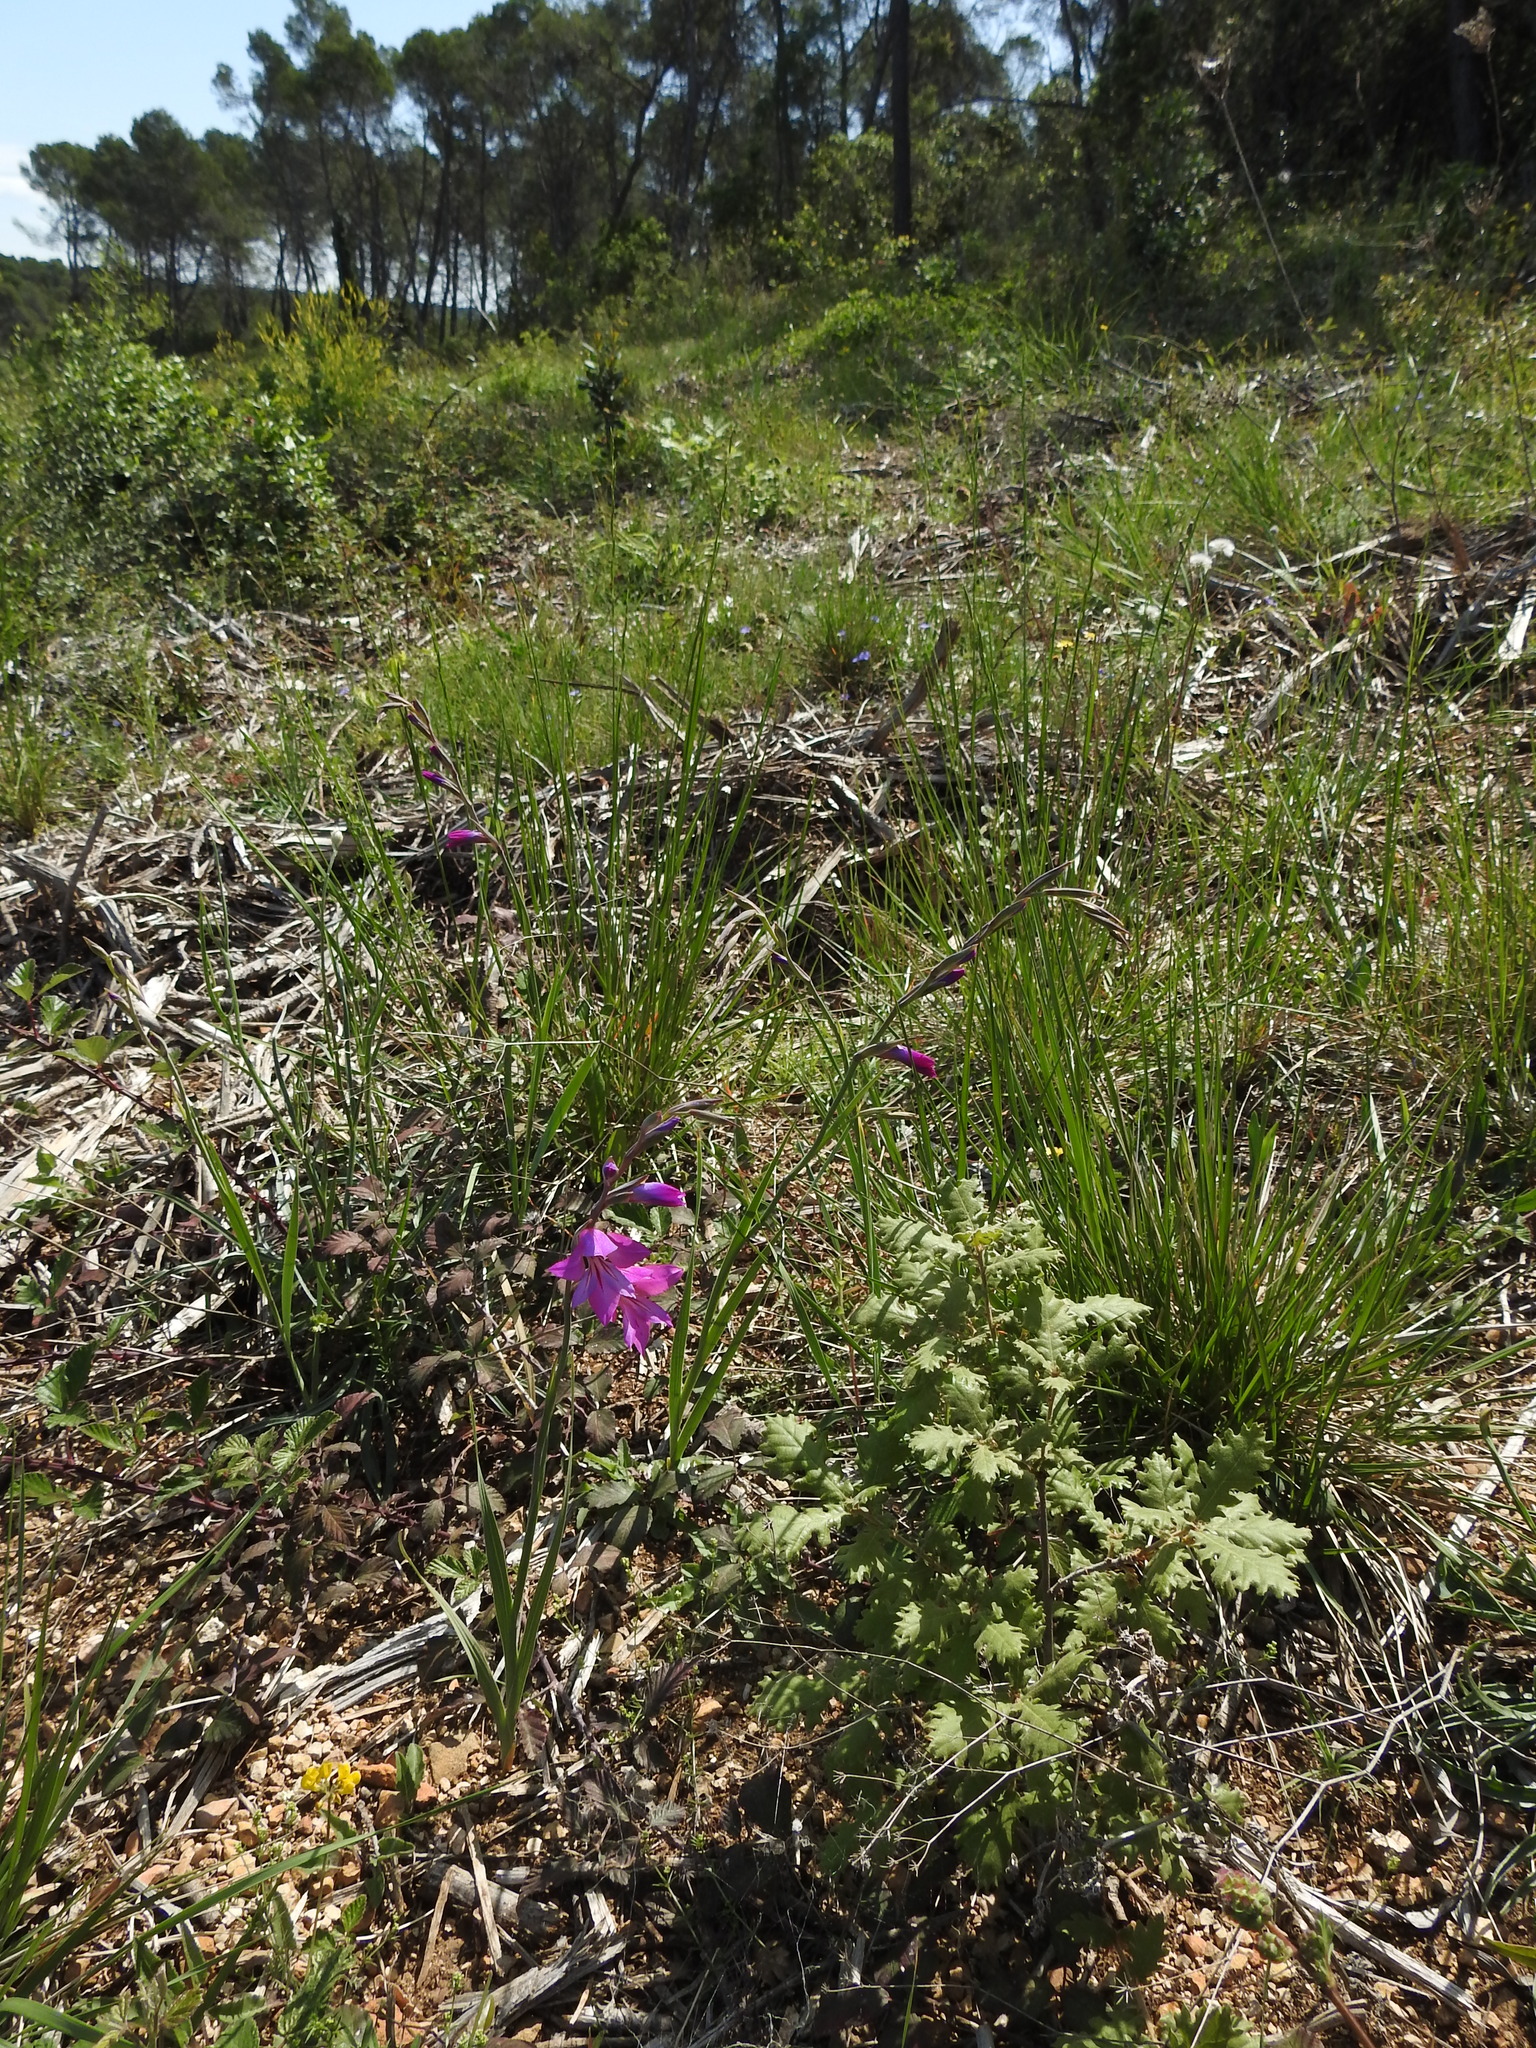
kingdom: Plantae
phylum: Tracheophyta
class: Liliopsida
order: Asparagales
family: Iridaceae
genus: Gladiolus
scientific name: Gladiolus dubius
